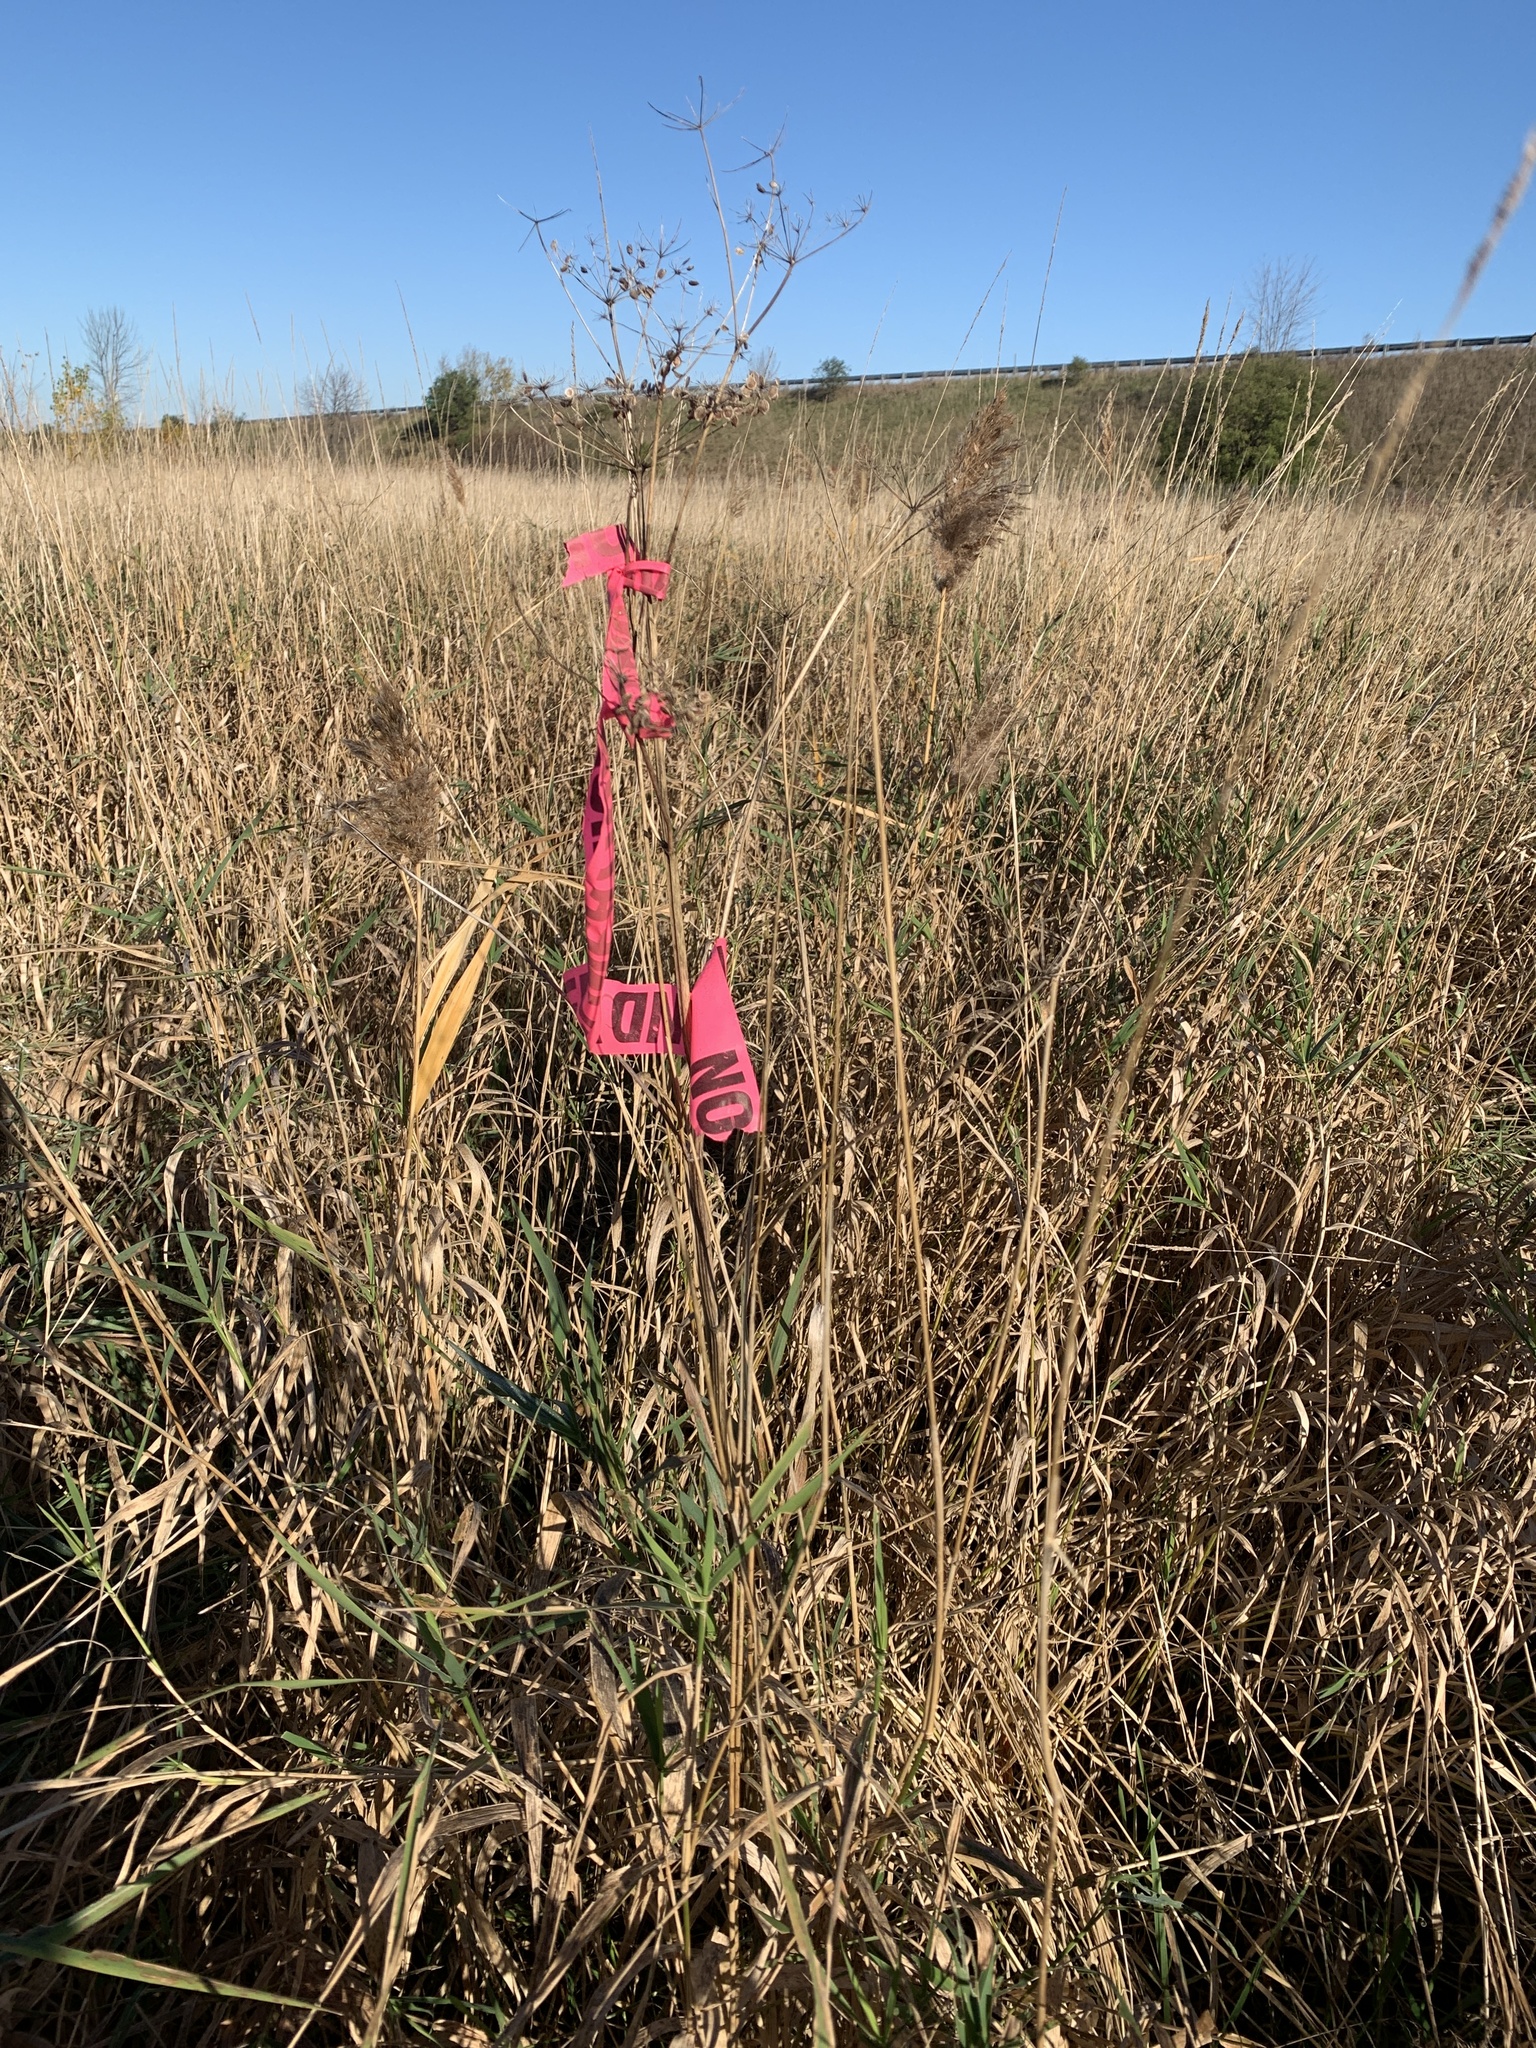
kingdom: Plantae
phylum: Tracheophyta
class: Magnoliopsida
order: Apiales
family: Apiaceae
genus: Pastinaca
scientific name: Pastinaca sativa
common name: Wild parsnip
